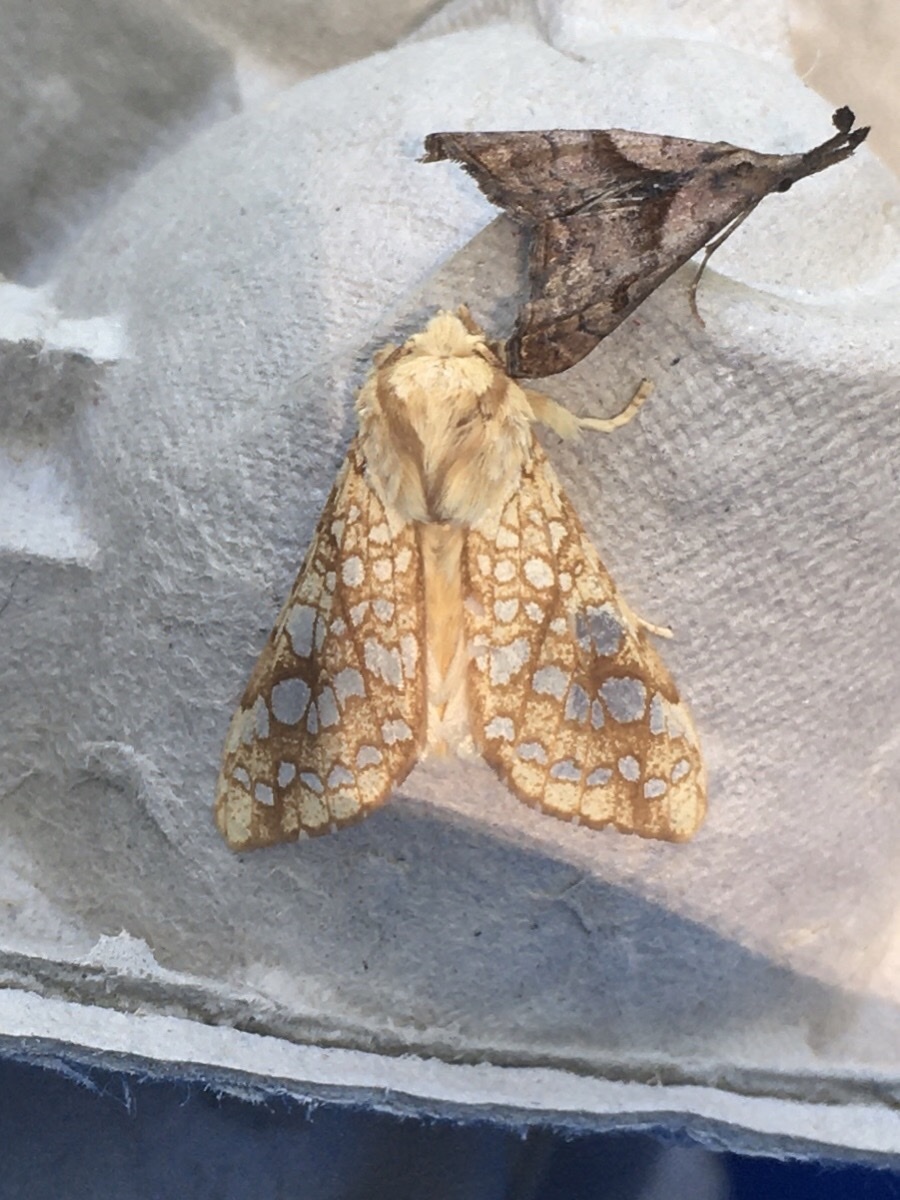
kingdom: Animalia
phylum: Arthropoda
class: Insecta
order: Lepidoptera
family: Erebidae
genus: Lophocampa
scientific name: Lophocampa caryae
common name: Hickory tussock moth
